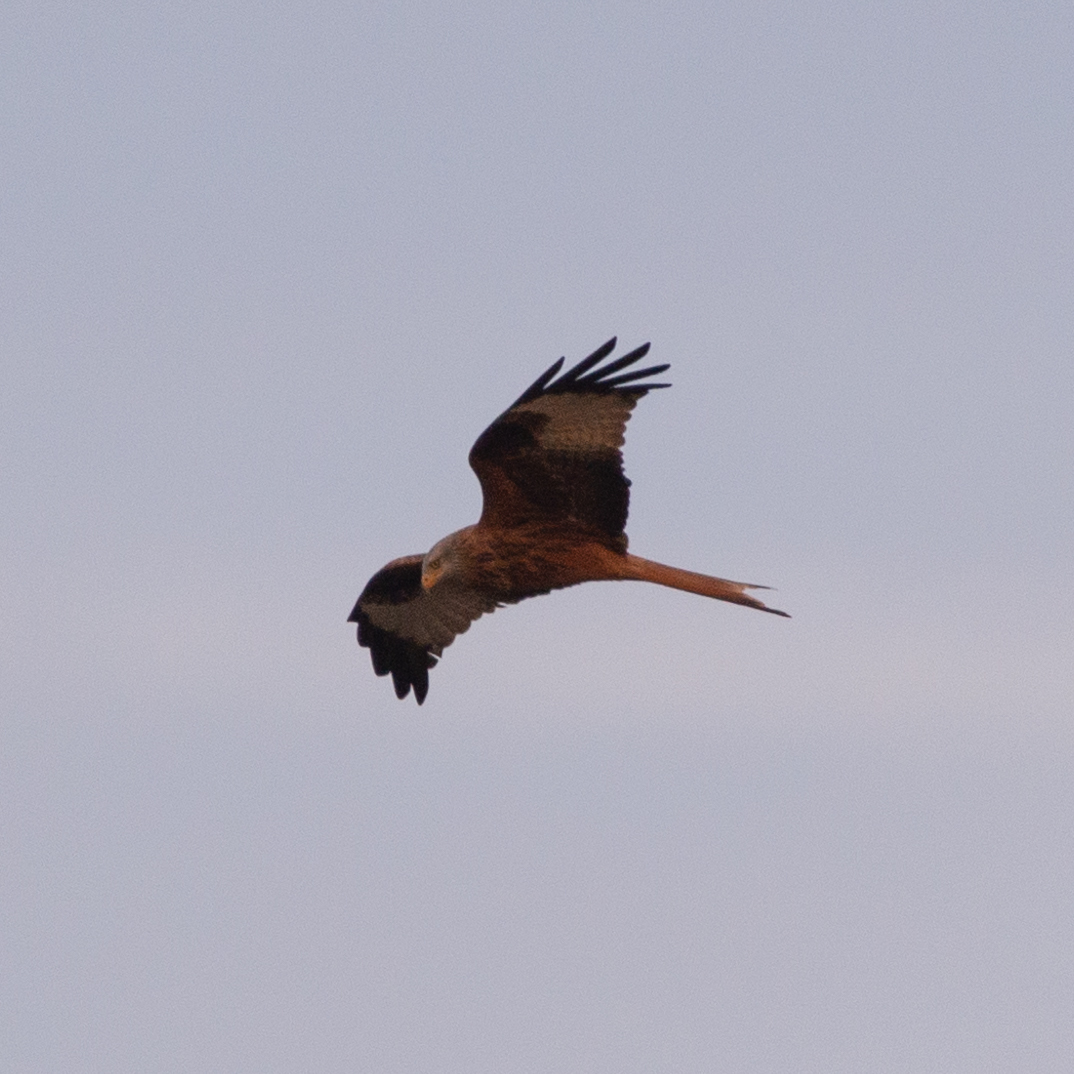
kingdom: Animalia
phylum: Chordata
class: Aves
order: Accipitriformes
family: Accipitridae
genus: Milvus
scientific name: Milvus milvus
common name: Red kite
